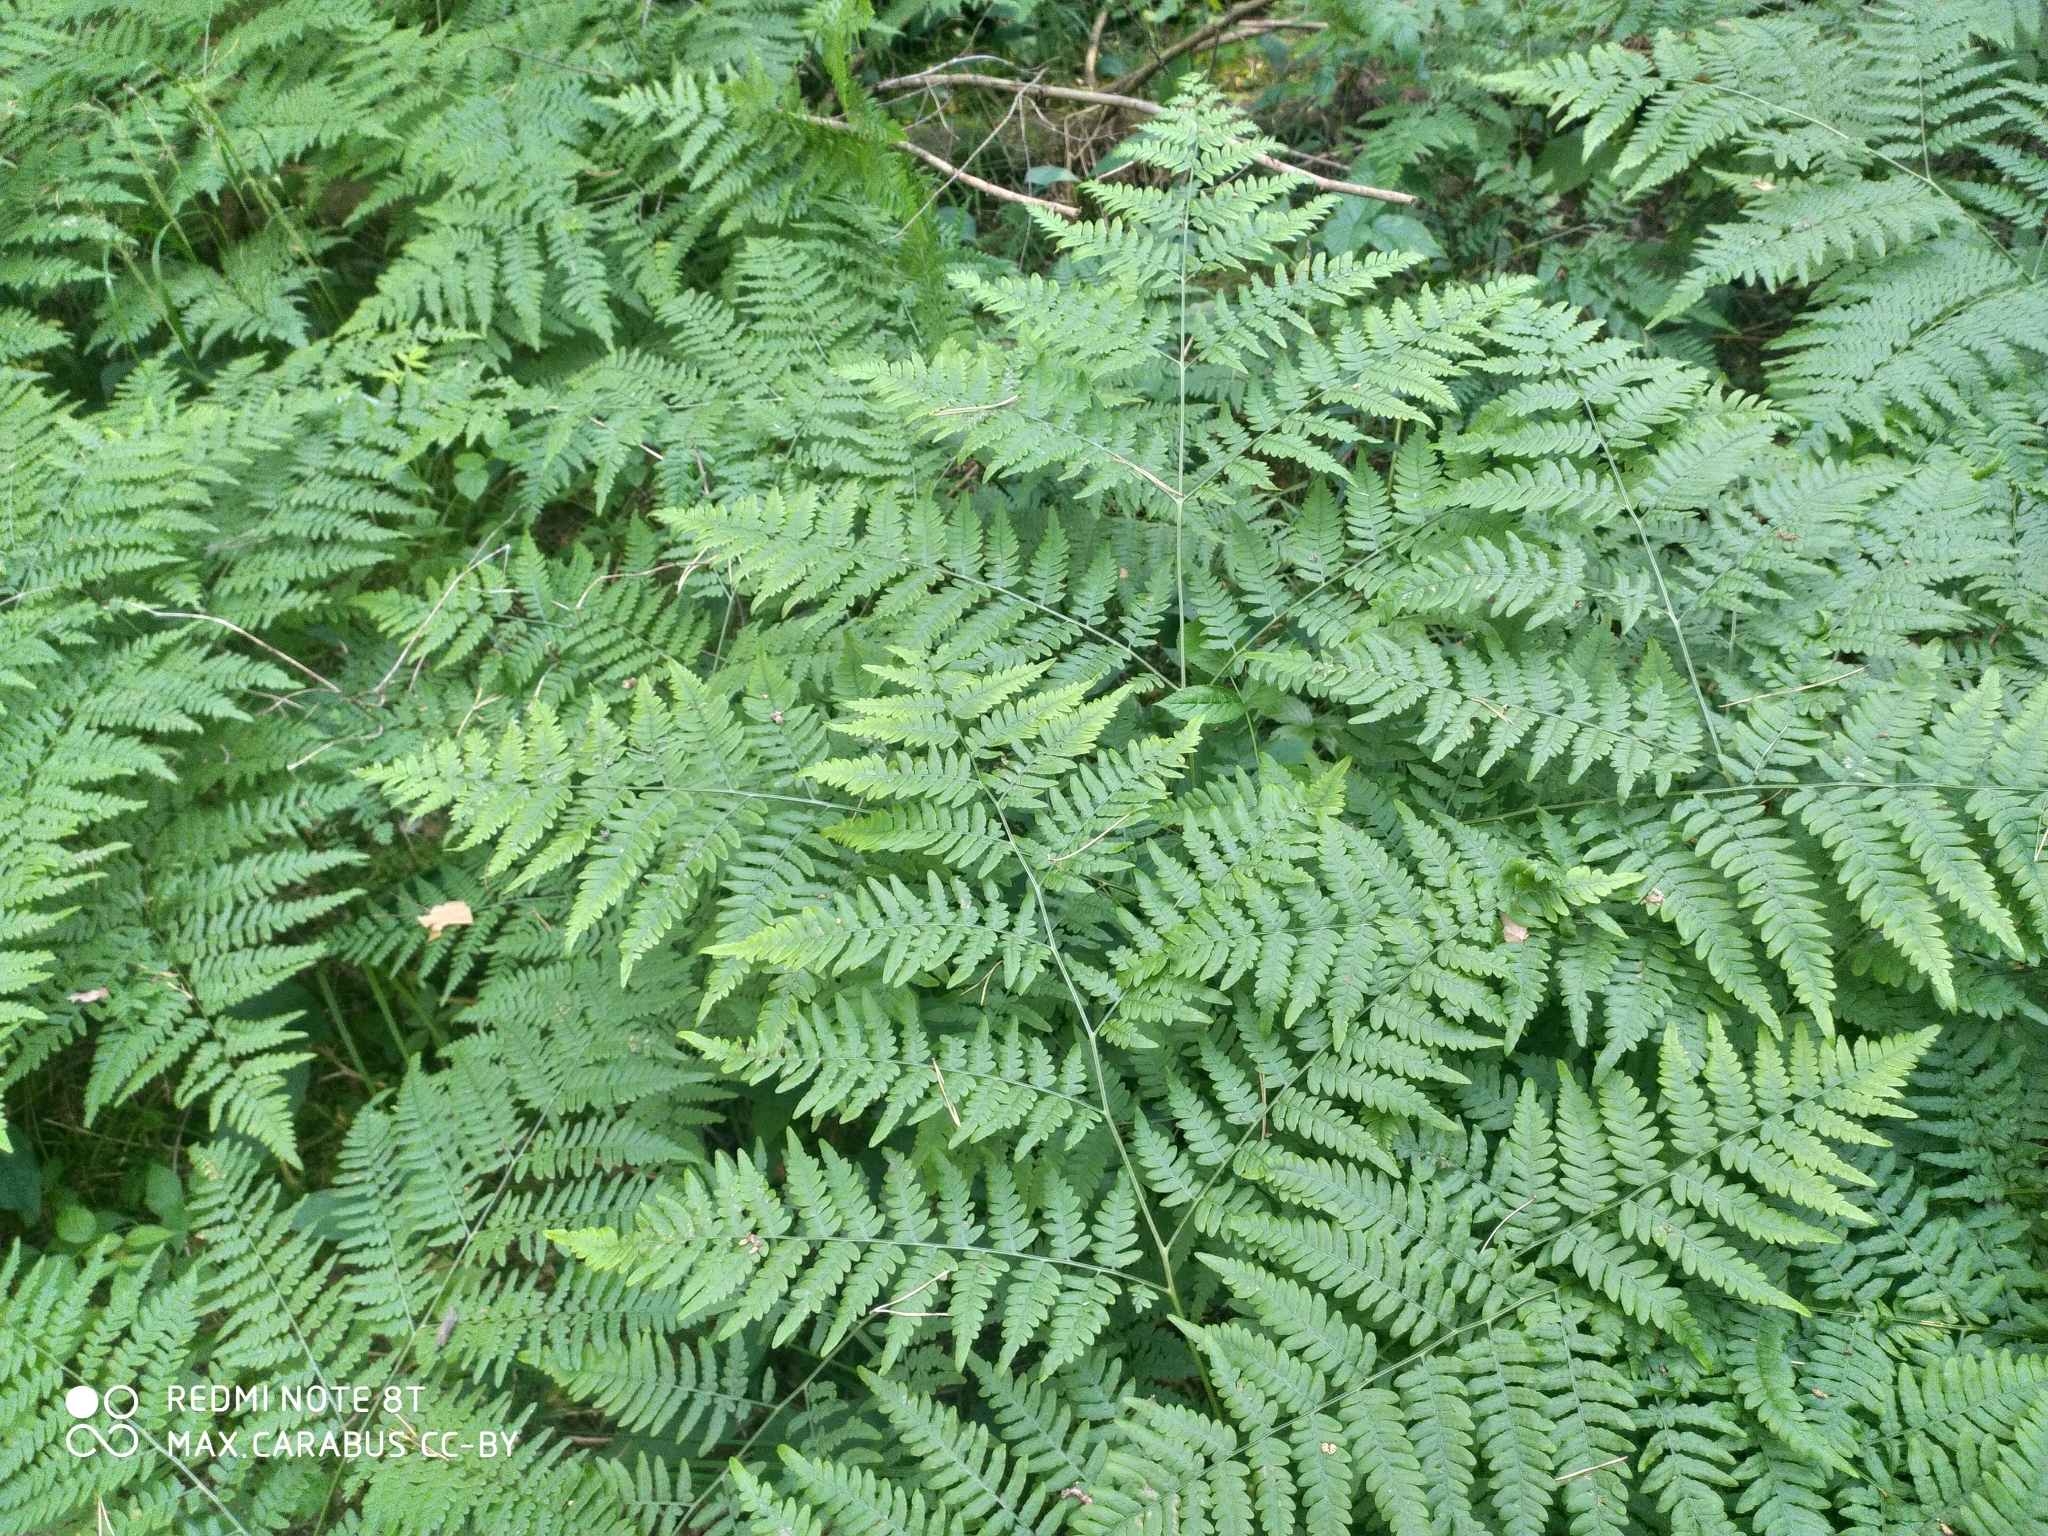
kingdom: Plantae
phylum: Tracheophyta
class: Polypodiopsida
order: Polypodiales
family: Dennstaedtiaceae
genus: Pteridium
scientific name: Pteridium aquilinum
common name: Bracken
